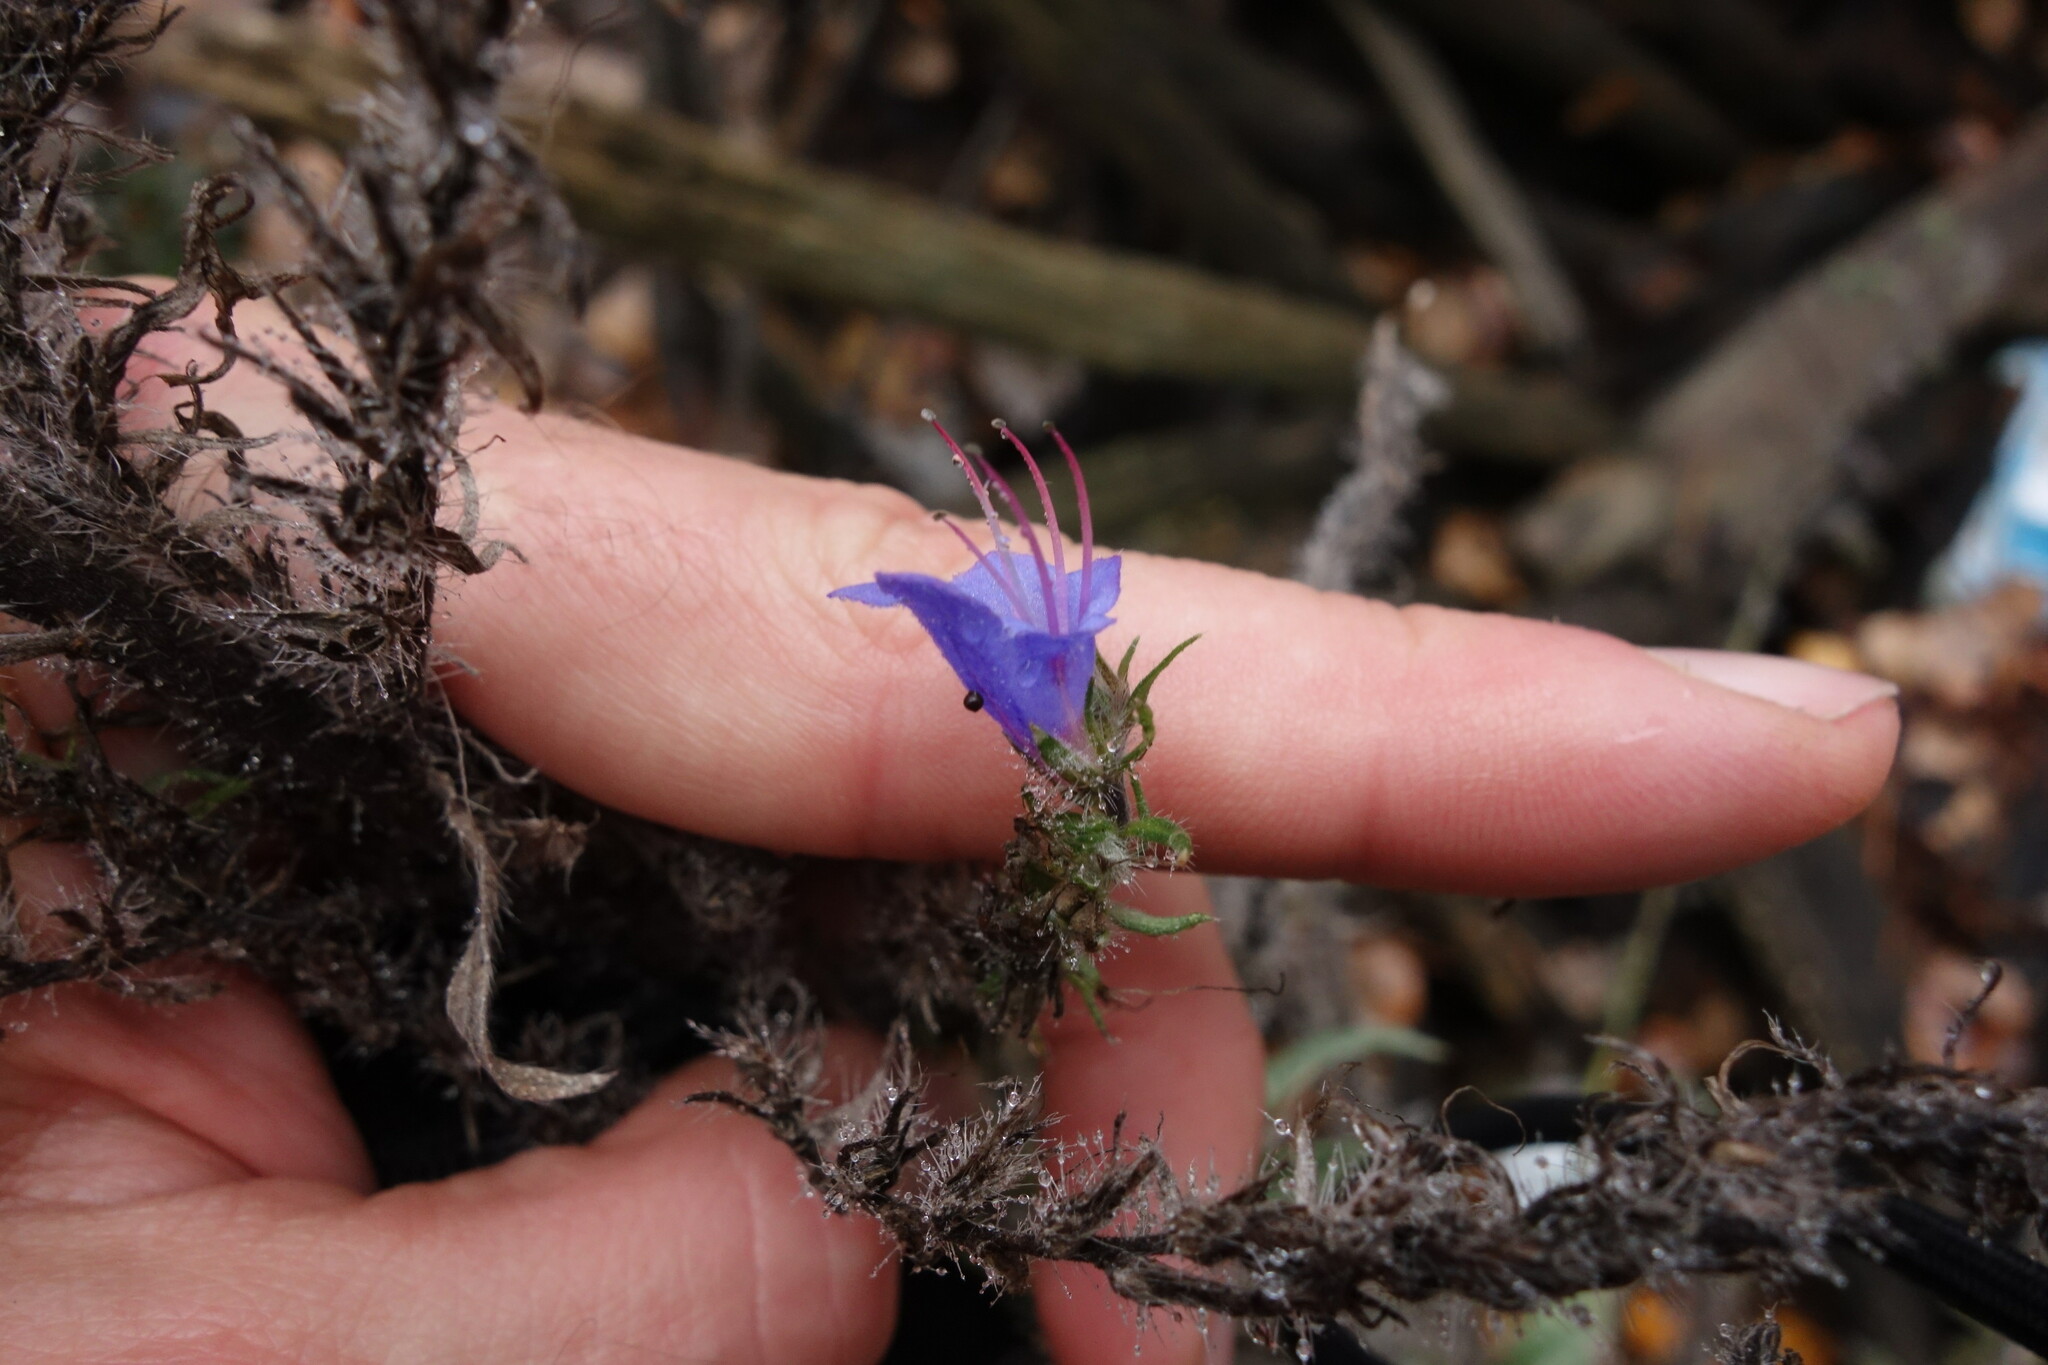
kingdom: Plantae
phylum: Tracheophyta
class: Magnoliopsida
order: Boraginales
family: Boraginaceae
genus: Echium
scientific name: Echium vulgare
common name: Common viper's bugloss
